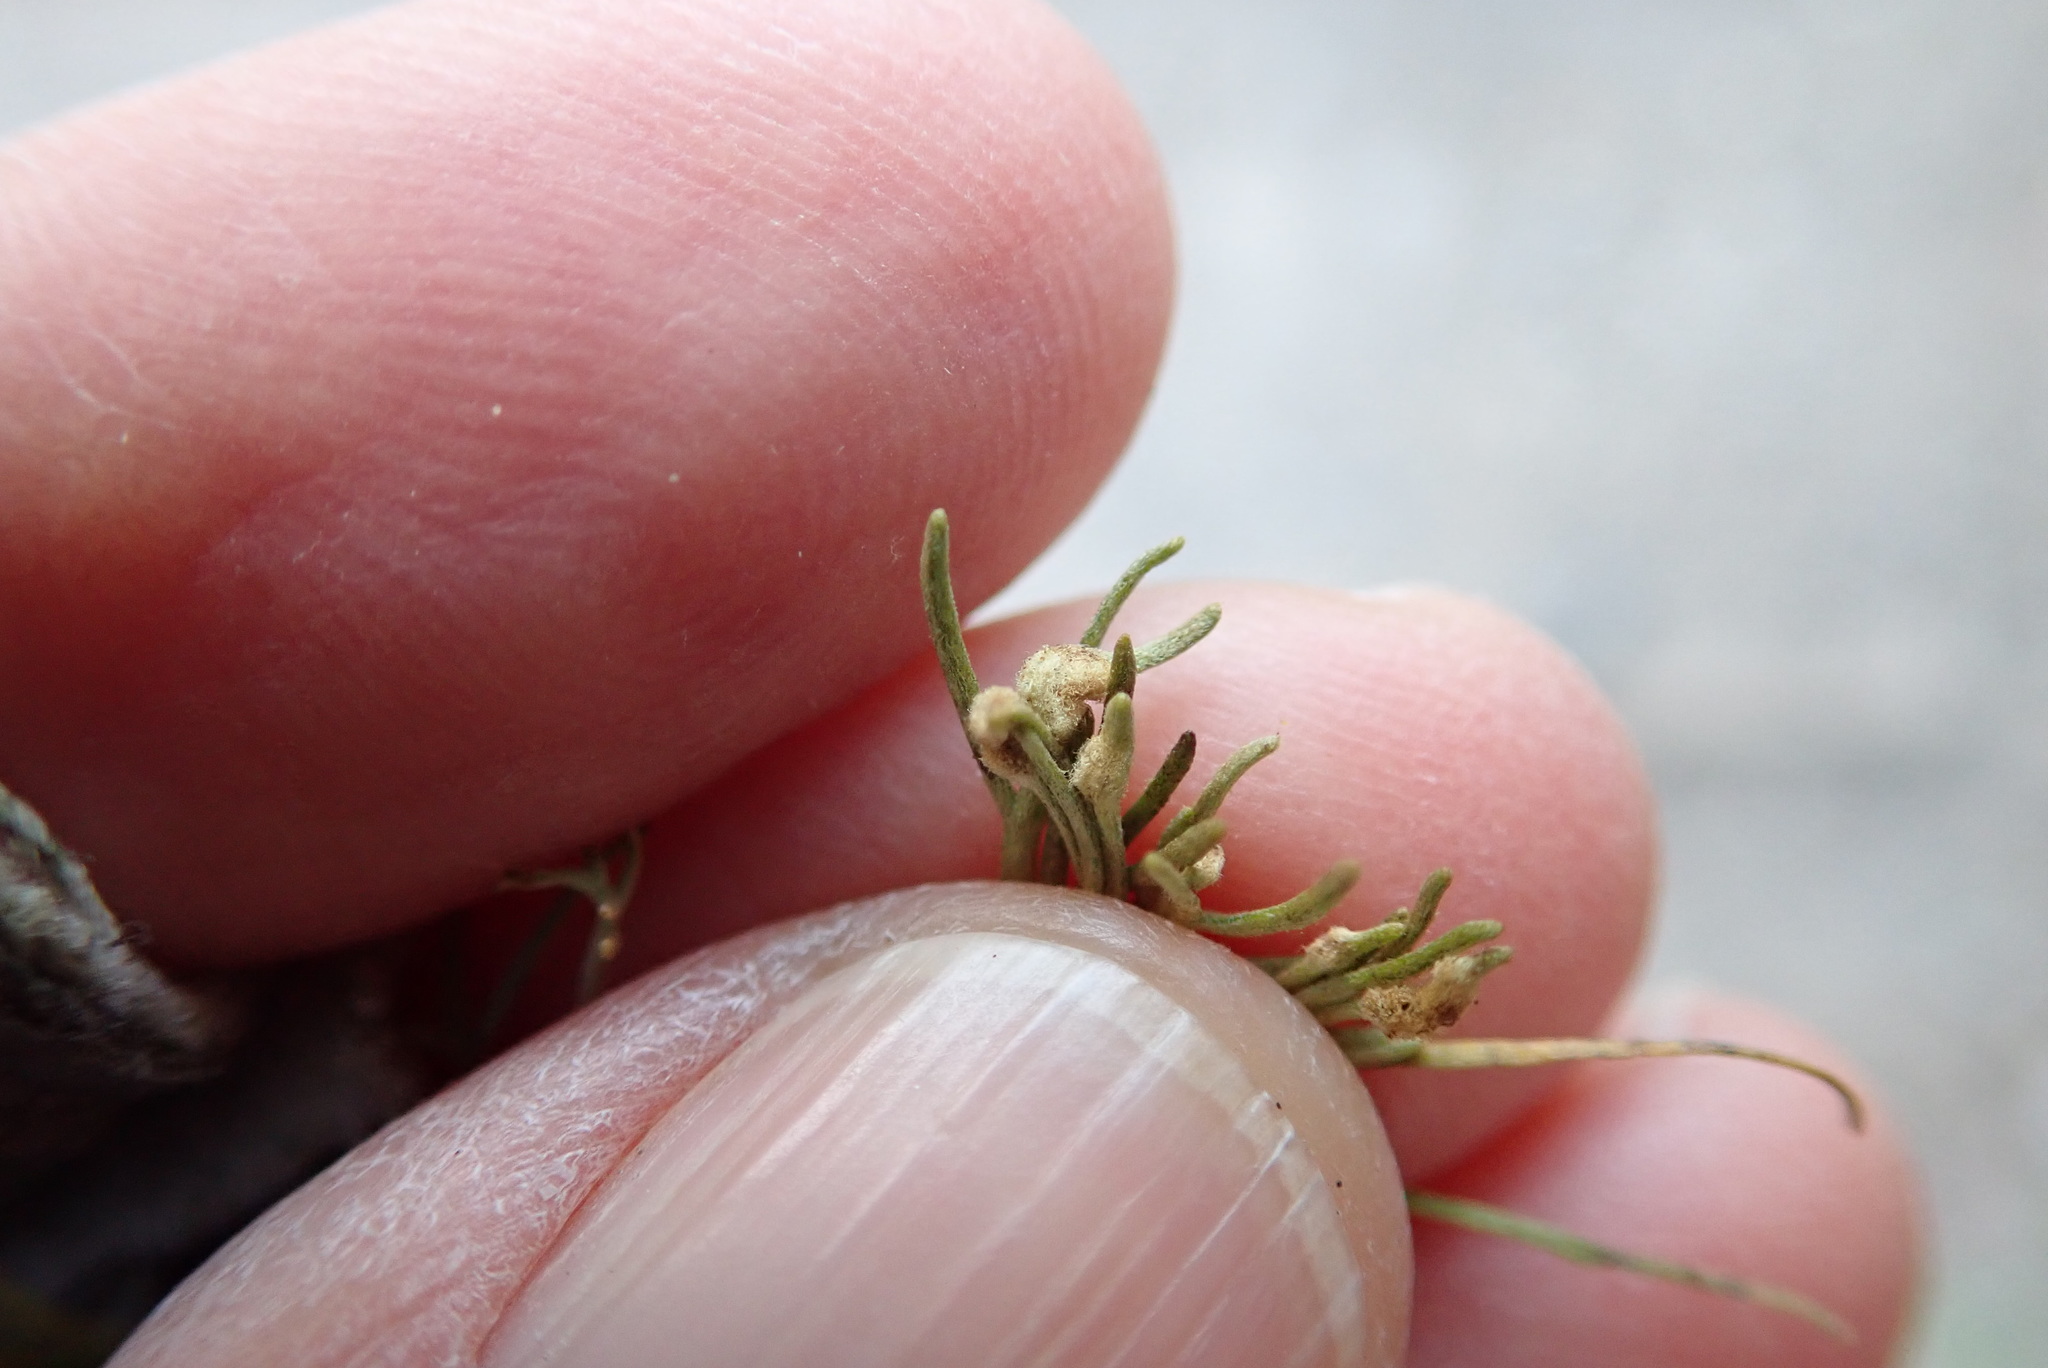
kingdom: Animalia
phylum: Arthropoda
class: Arachnida
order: Trombidiformes
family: Eriophyidae
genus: Aceria
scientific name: Aceria
